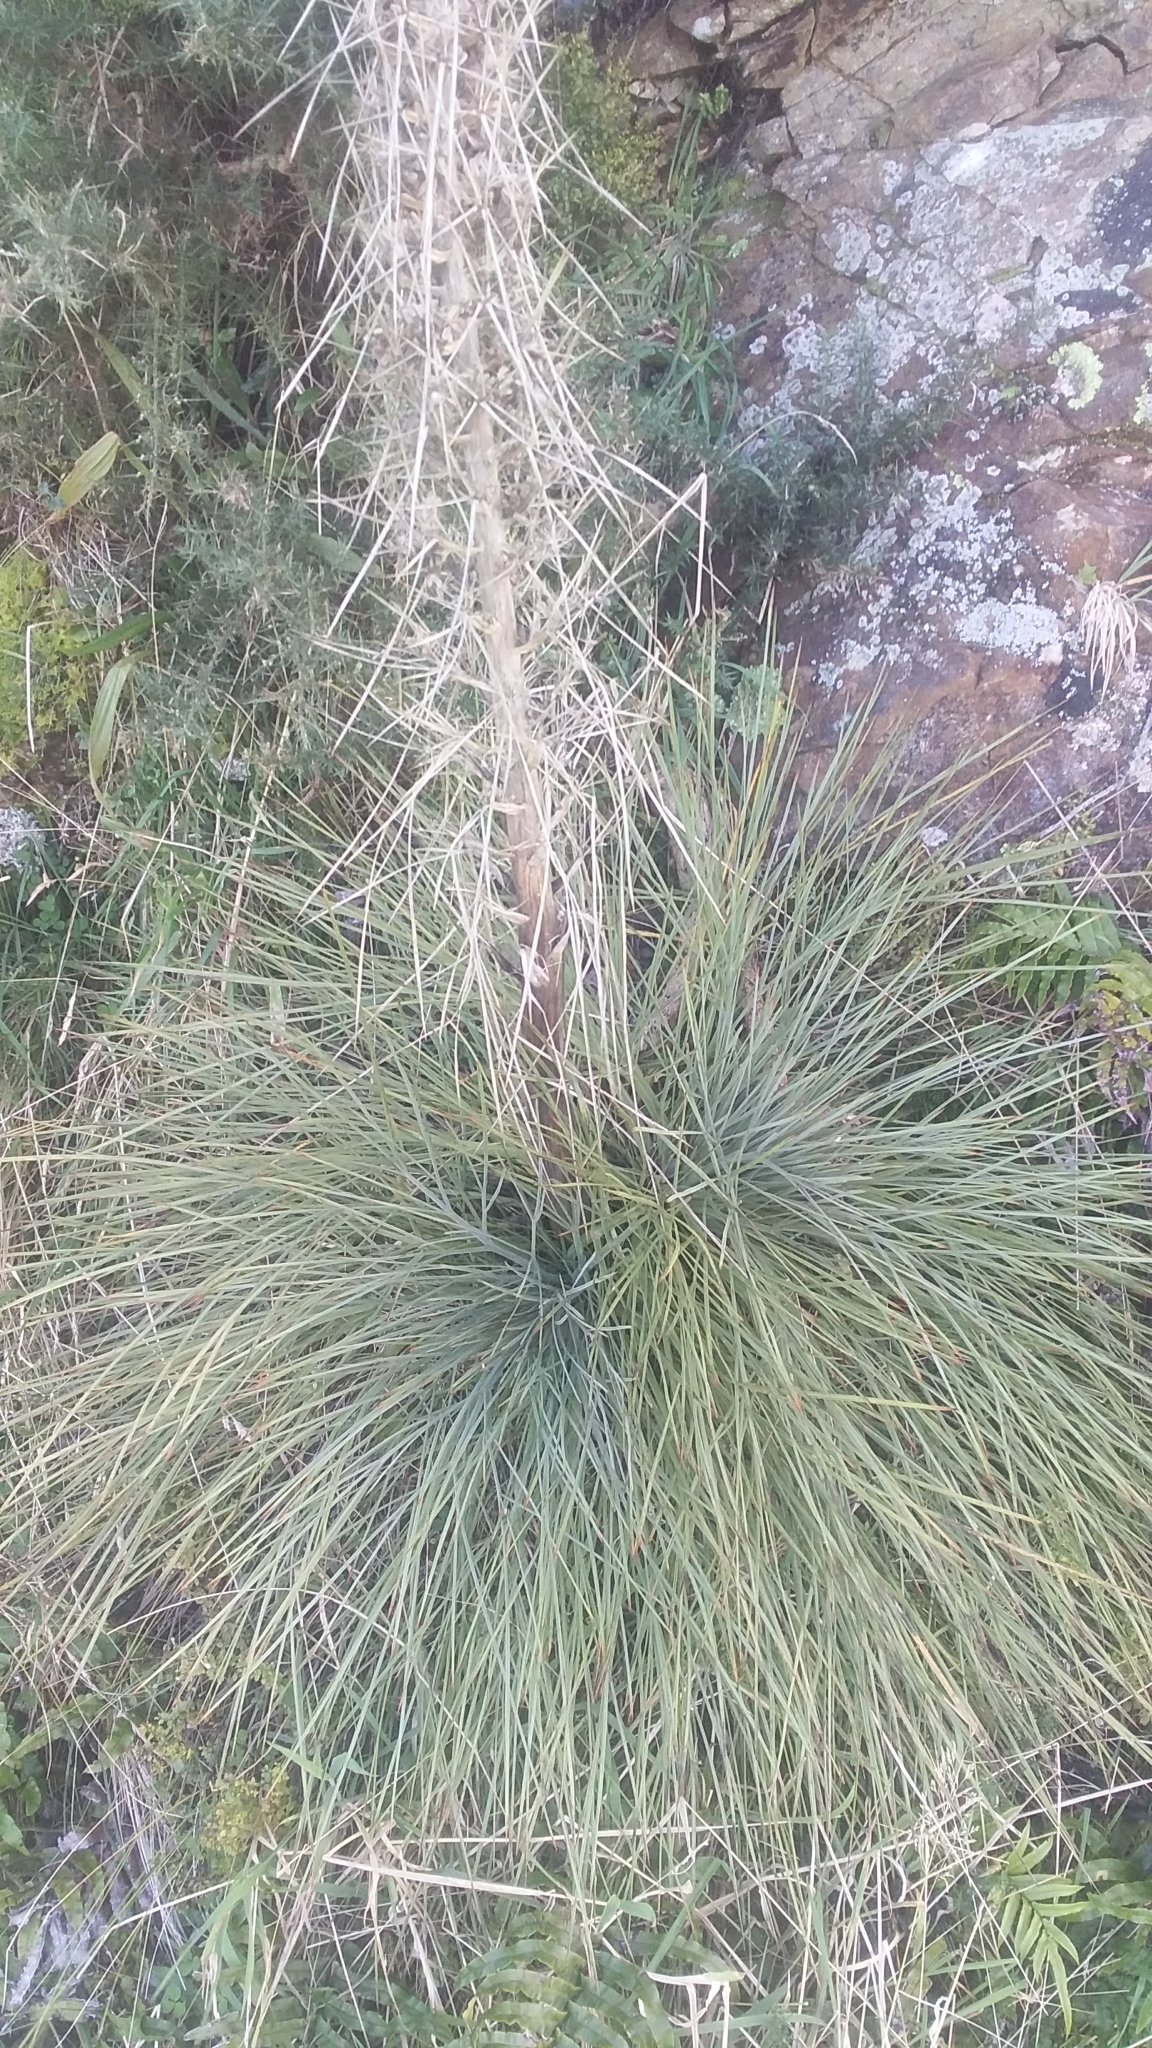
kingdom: Plantae
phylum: Tracheophyta
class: Magnoliopsida
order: Apiales
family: Apiaceae
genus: Aciphylla
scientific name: Aciphylla squarrosa
